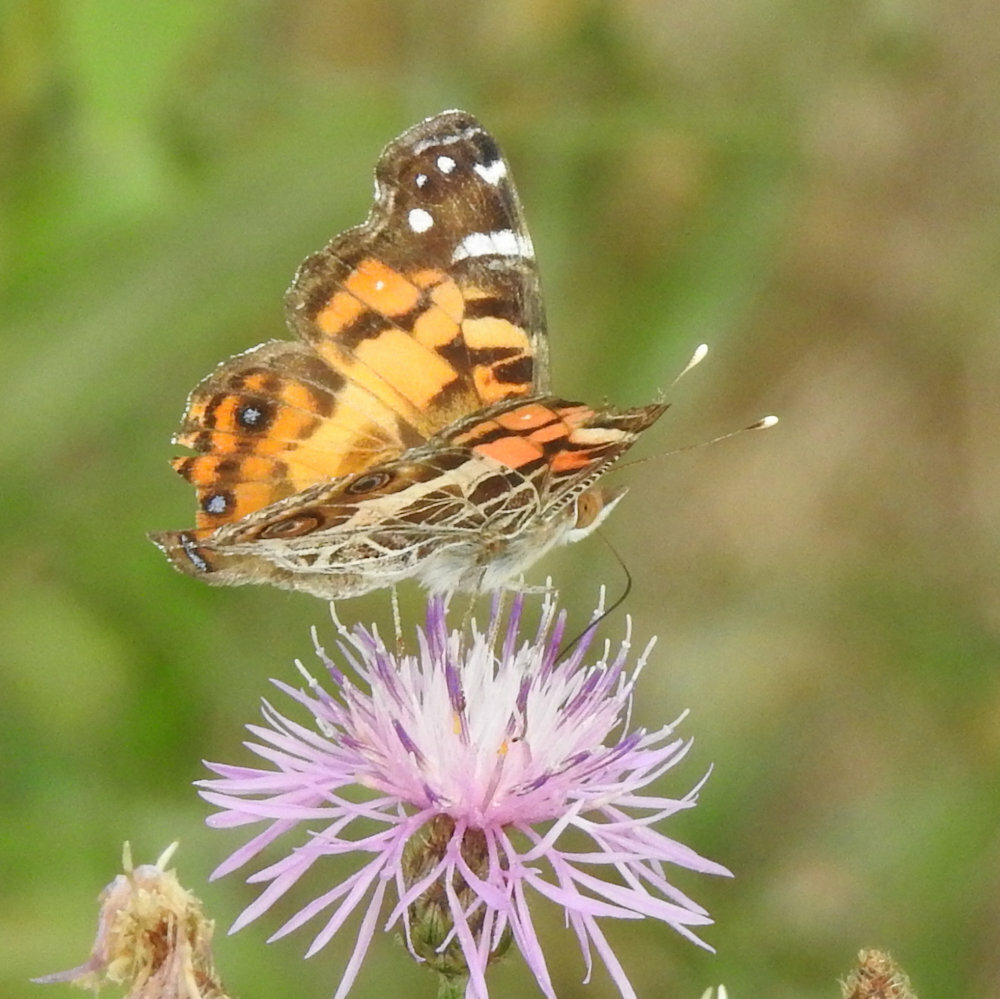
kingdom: Animalia
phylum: Arthropoda
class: Insecta
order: Lepidoptera
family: Nymphalidae
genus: Vanessa
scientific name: Vanessa virginiensis
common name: American lady
